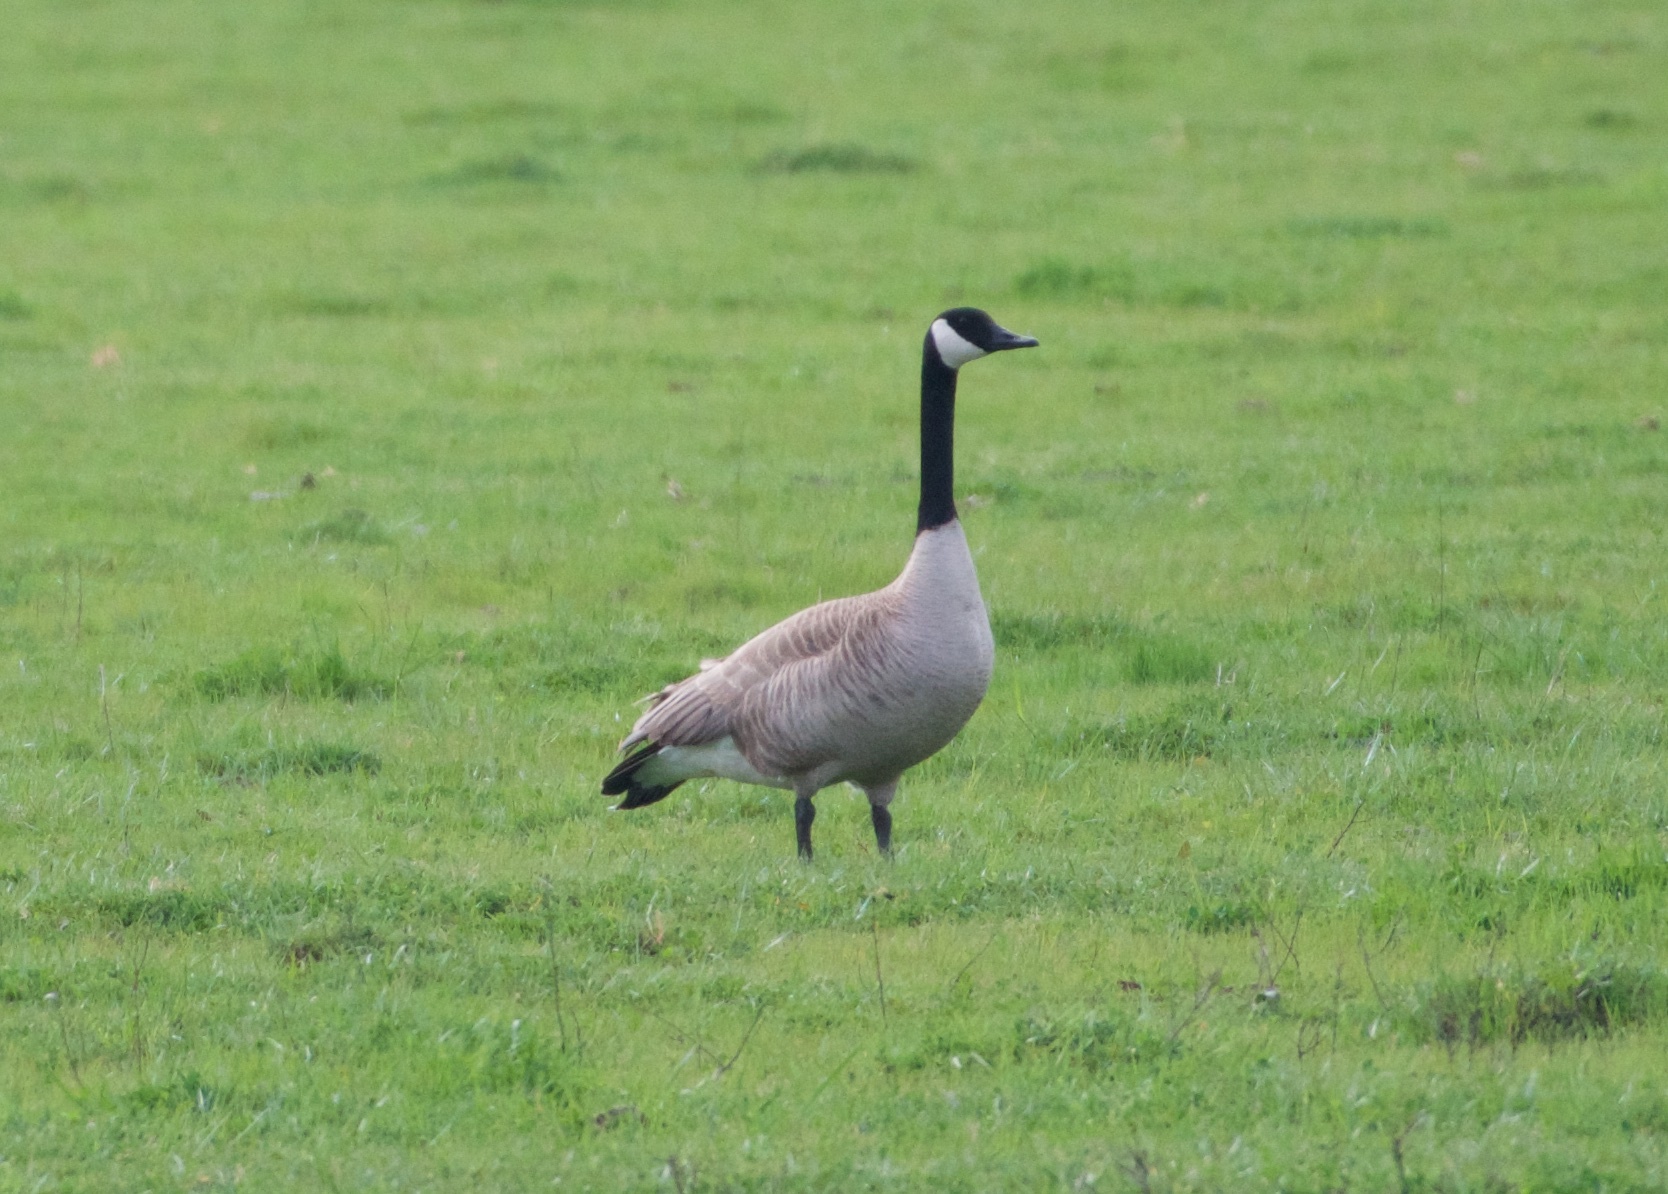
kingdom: Animalia
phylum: Chordata
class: Aves
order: Anseriformes
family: Anatidae
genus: Branta
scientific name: Branta canadensis
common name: Canada goose
